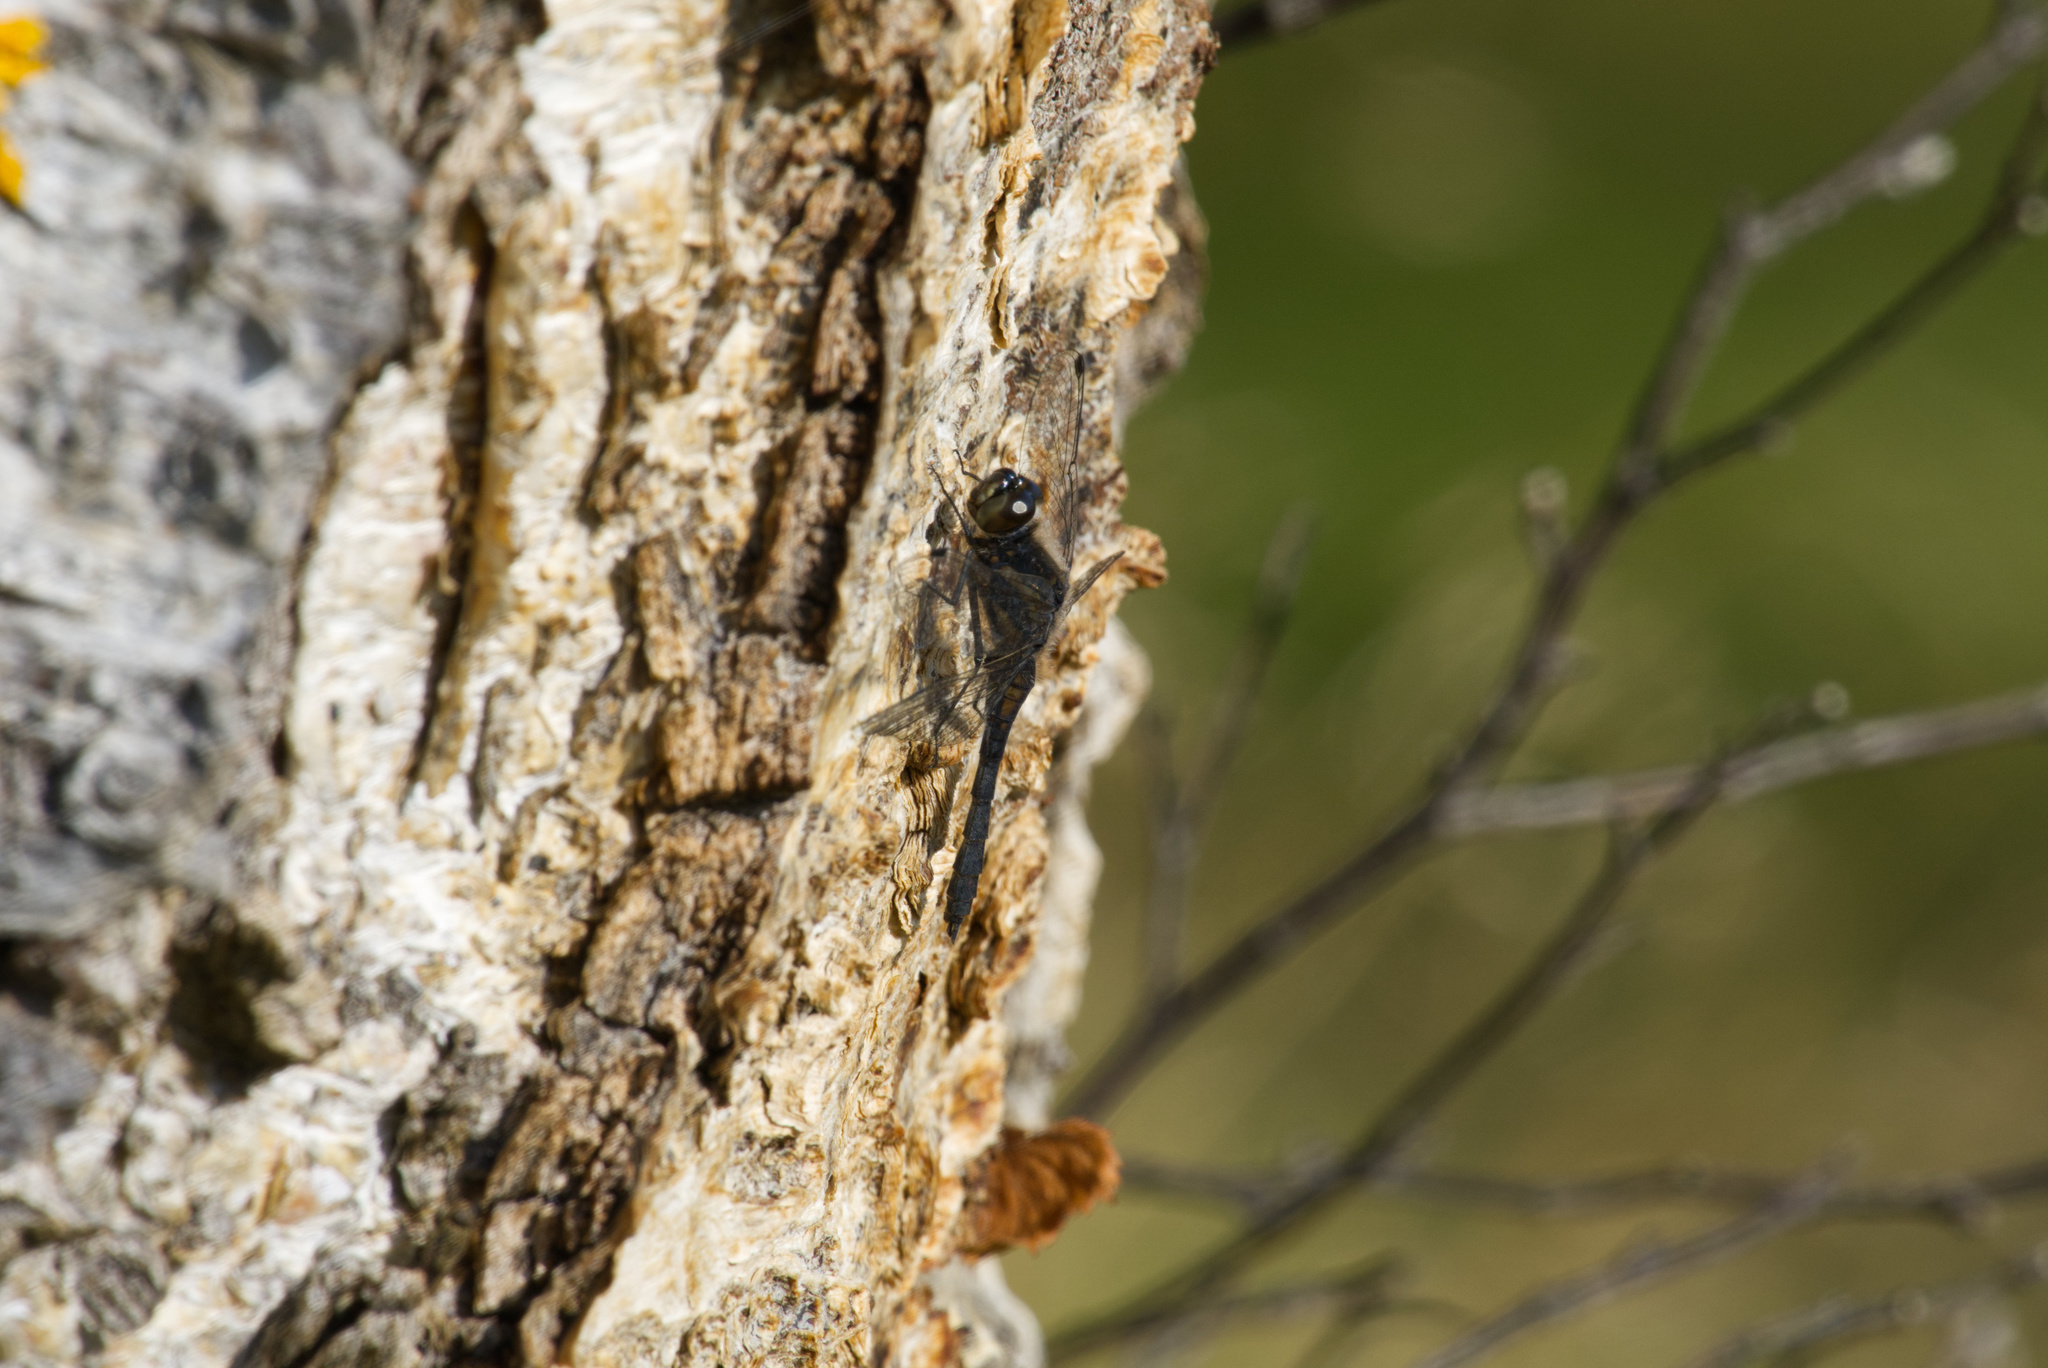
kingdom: Animalia
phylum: Arthropoda
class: Insecta
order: Odonata
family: Libellulidae
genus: Sympetrum
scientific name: Sympetrum danae
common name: Black darter
